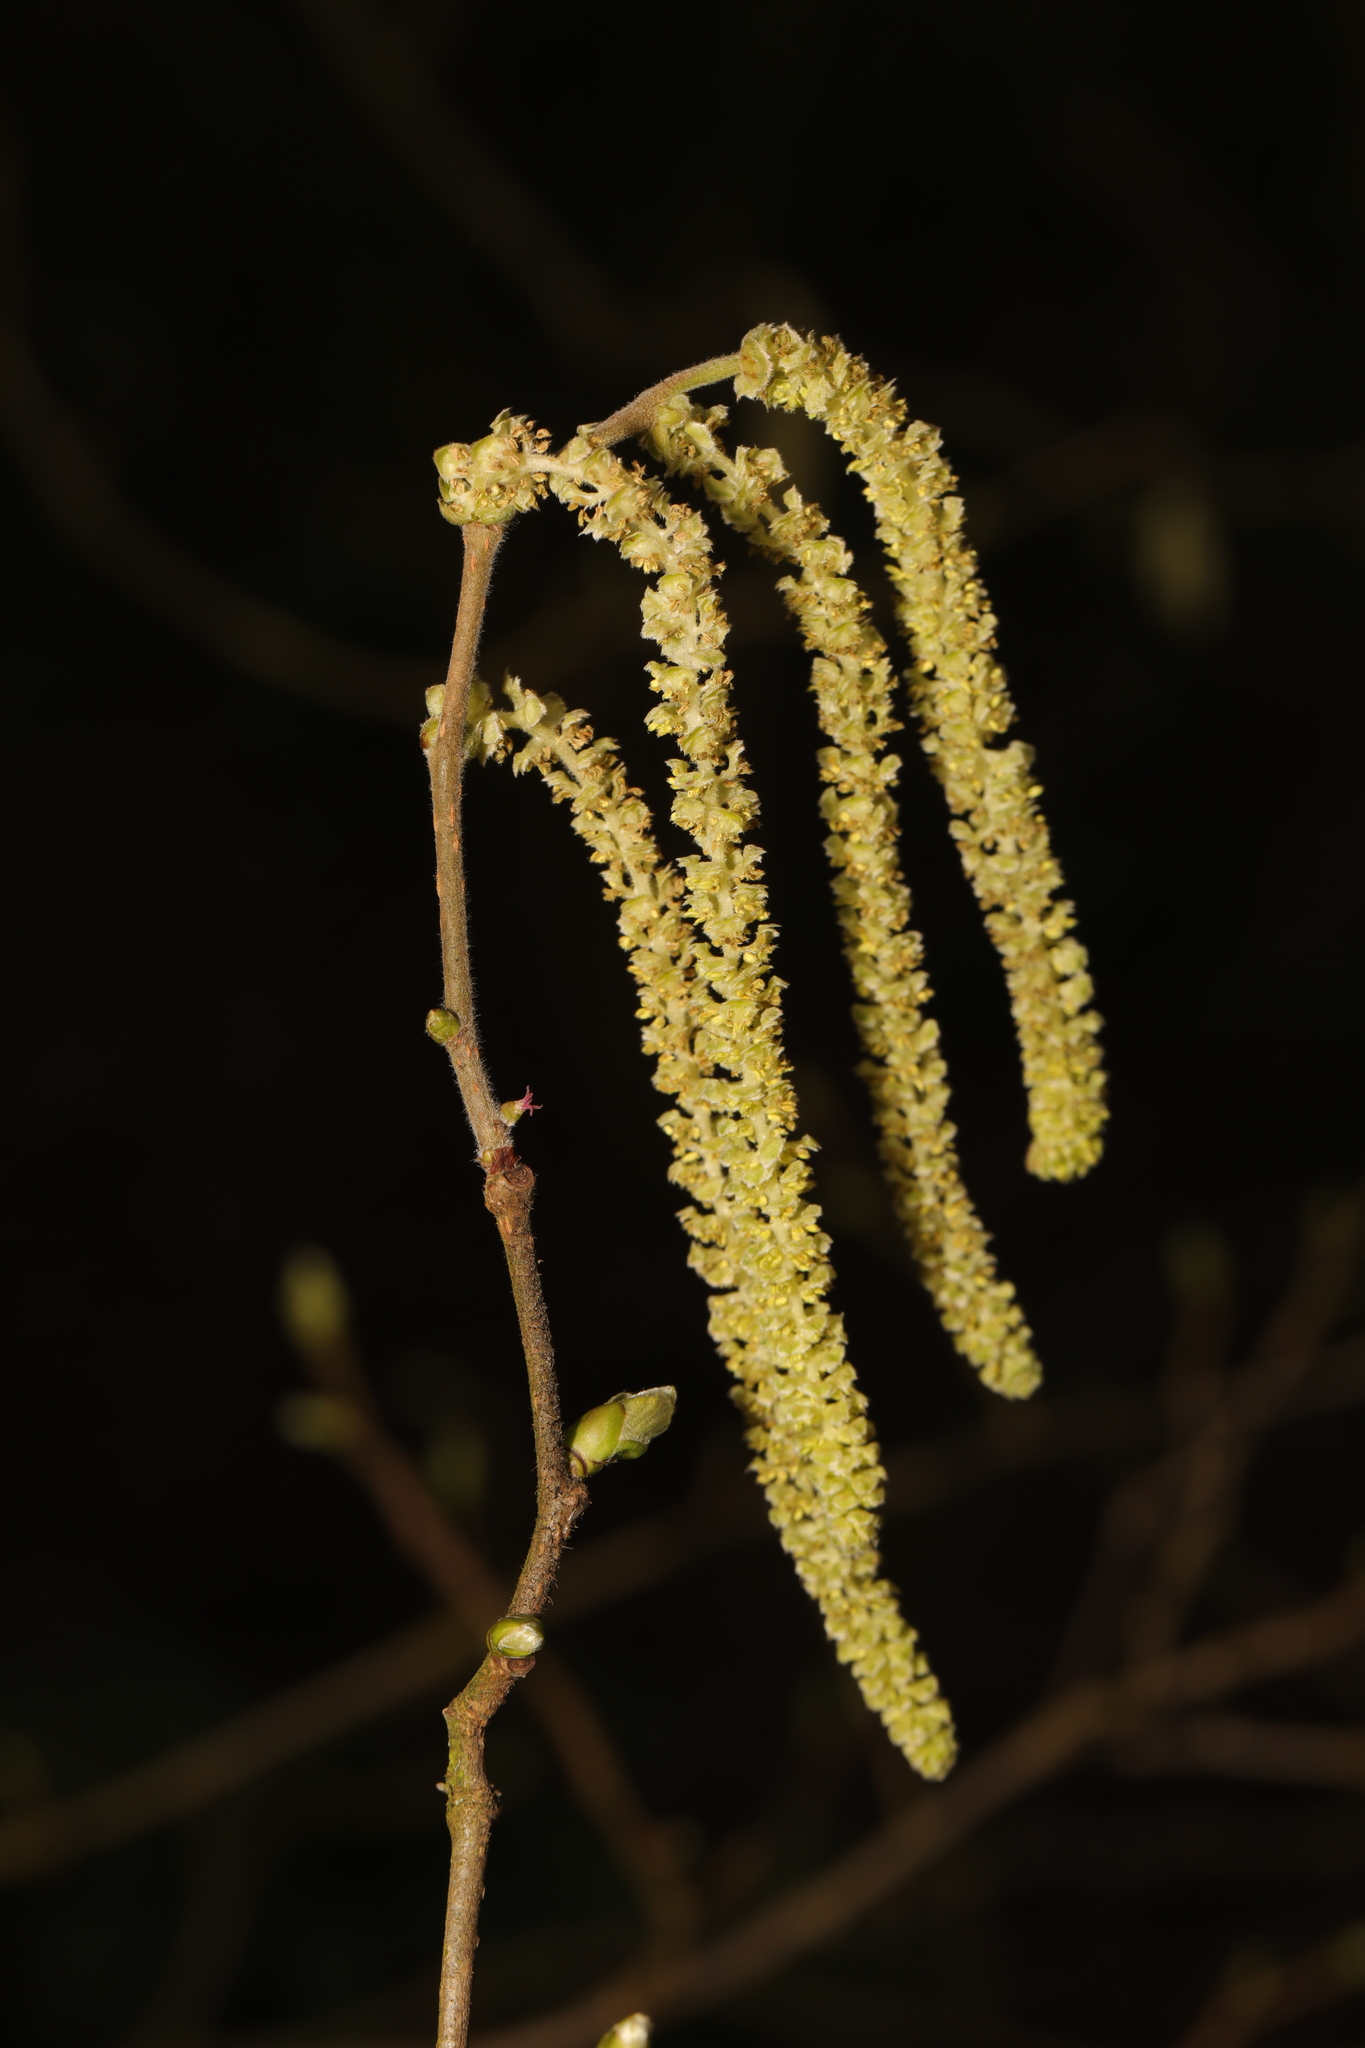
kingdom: Plantae
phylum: Tracheophyta
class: Magnoliopsida
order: Fagales
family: Betulaceae
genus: Corylus
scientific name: Corylus avellana
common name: European hazel
